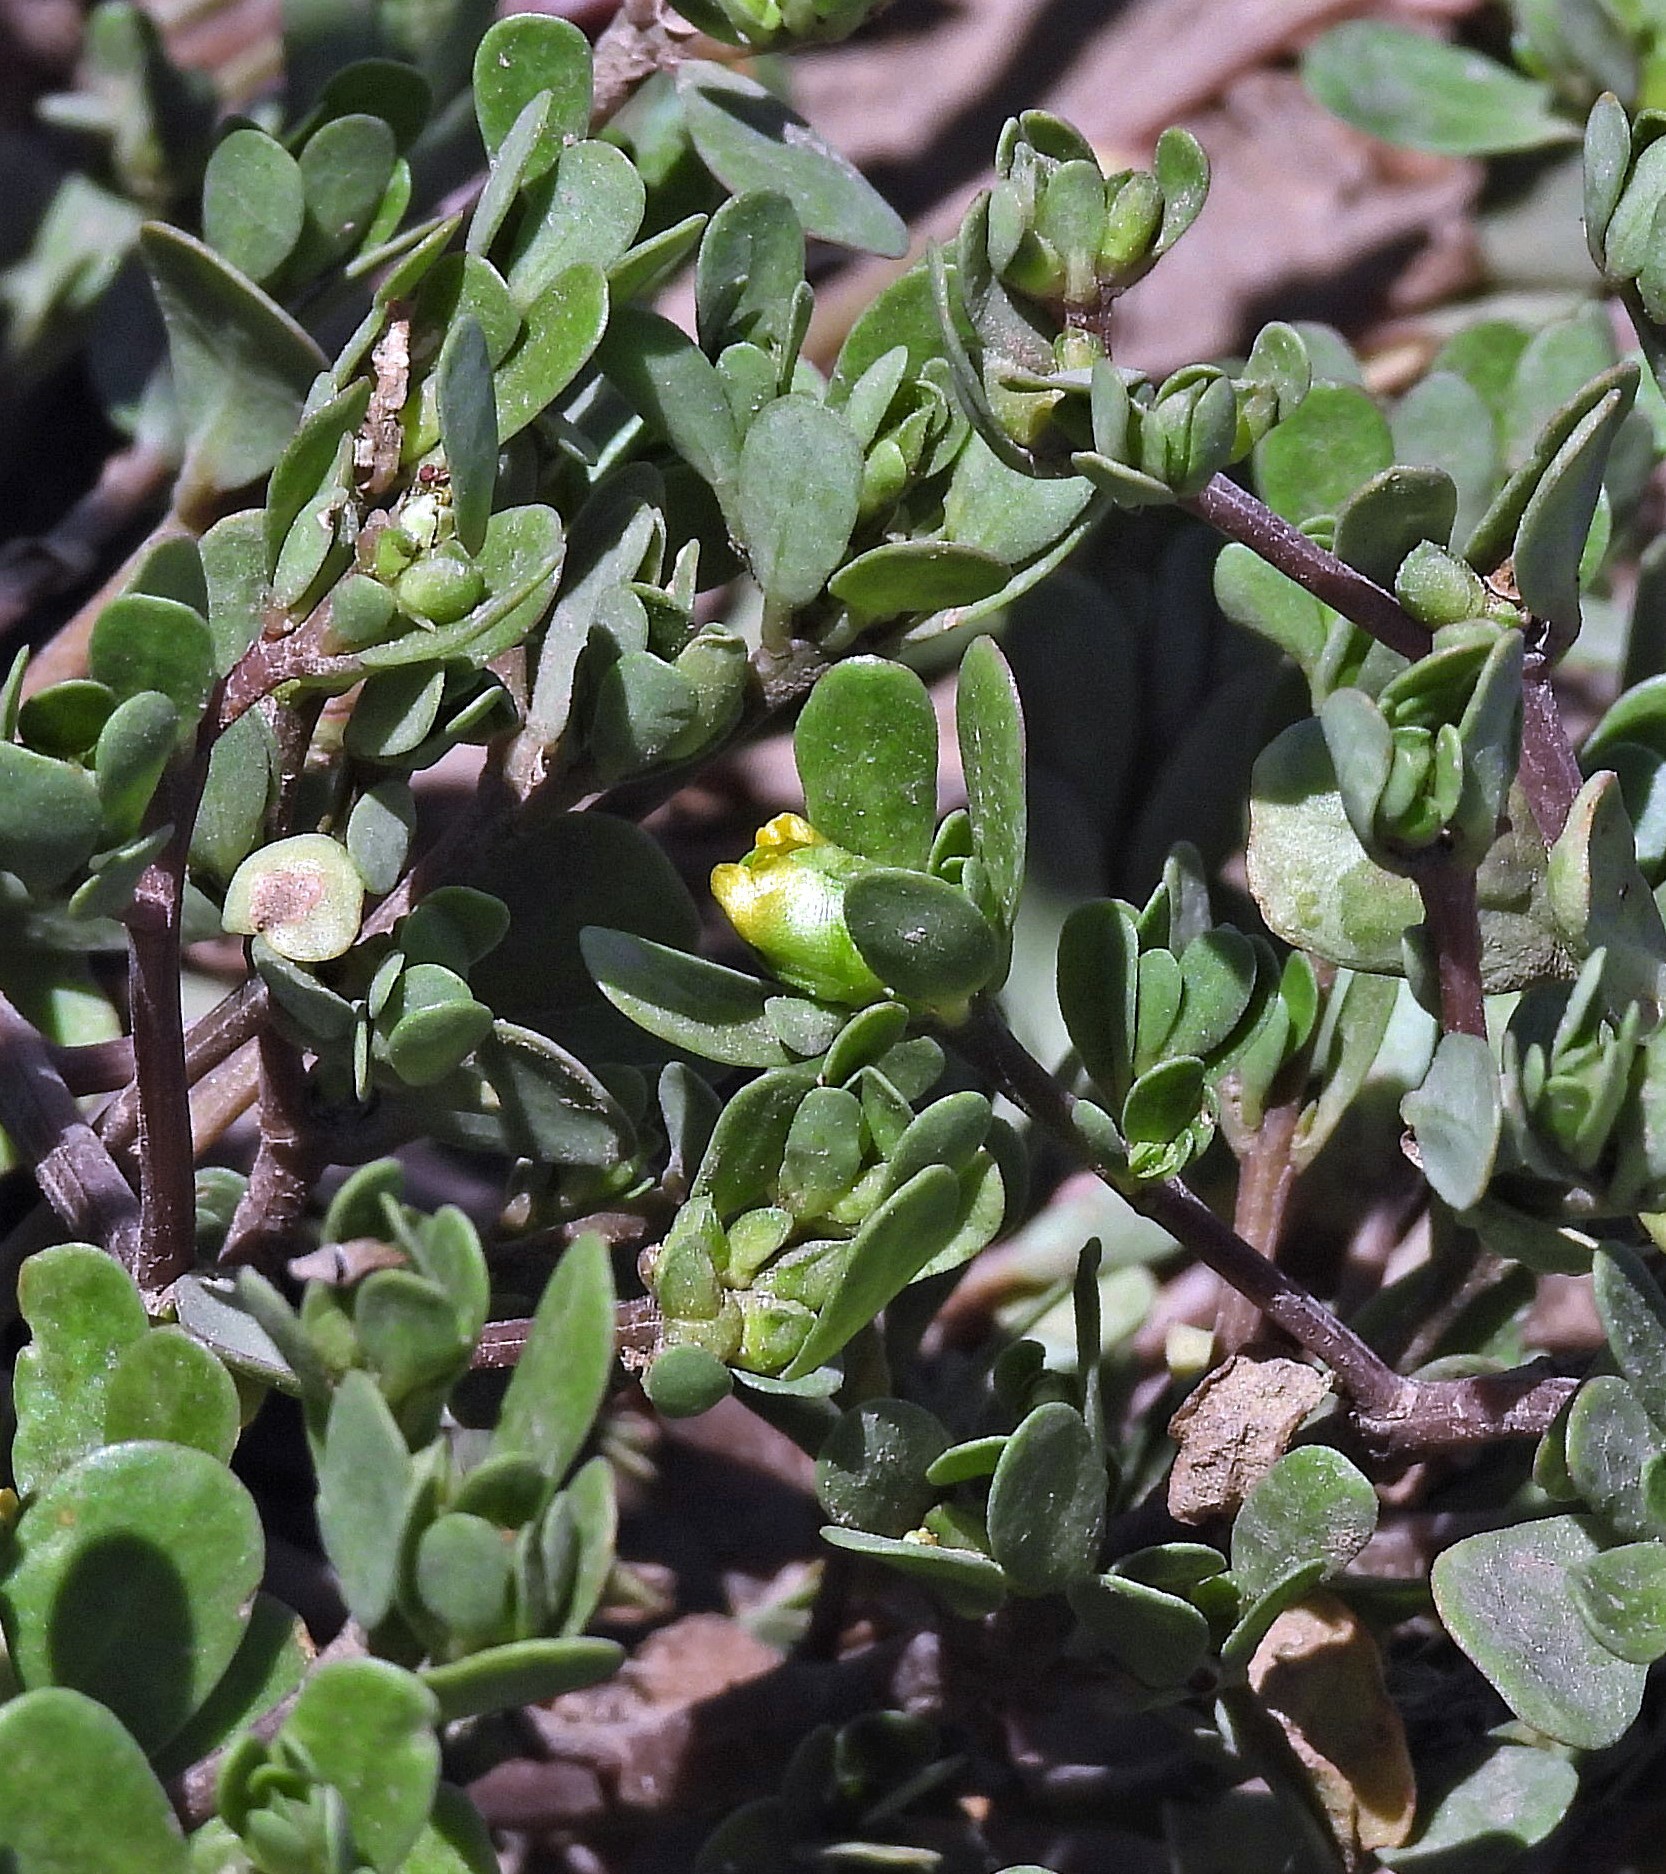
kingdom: Plantae
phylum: Tracheophyta
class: Magnoliopsida
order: Caryophyllales
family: Portulacaceae
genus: Portulaca
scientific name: Portulaca oleracea
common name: Common purslane
